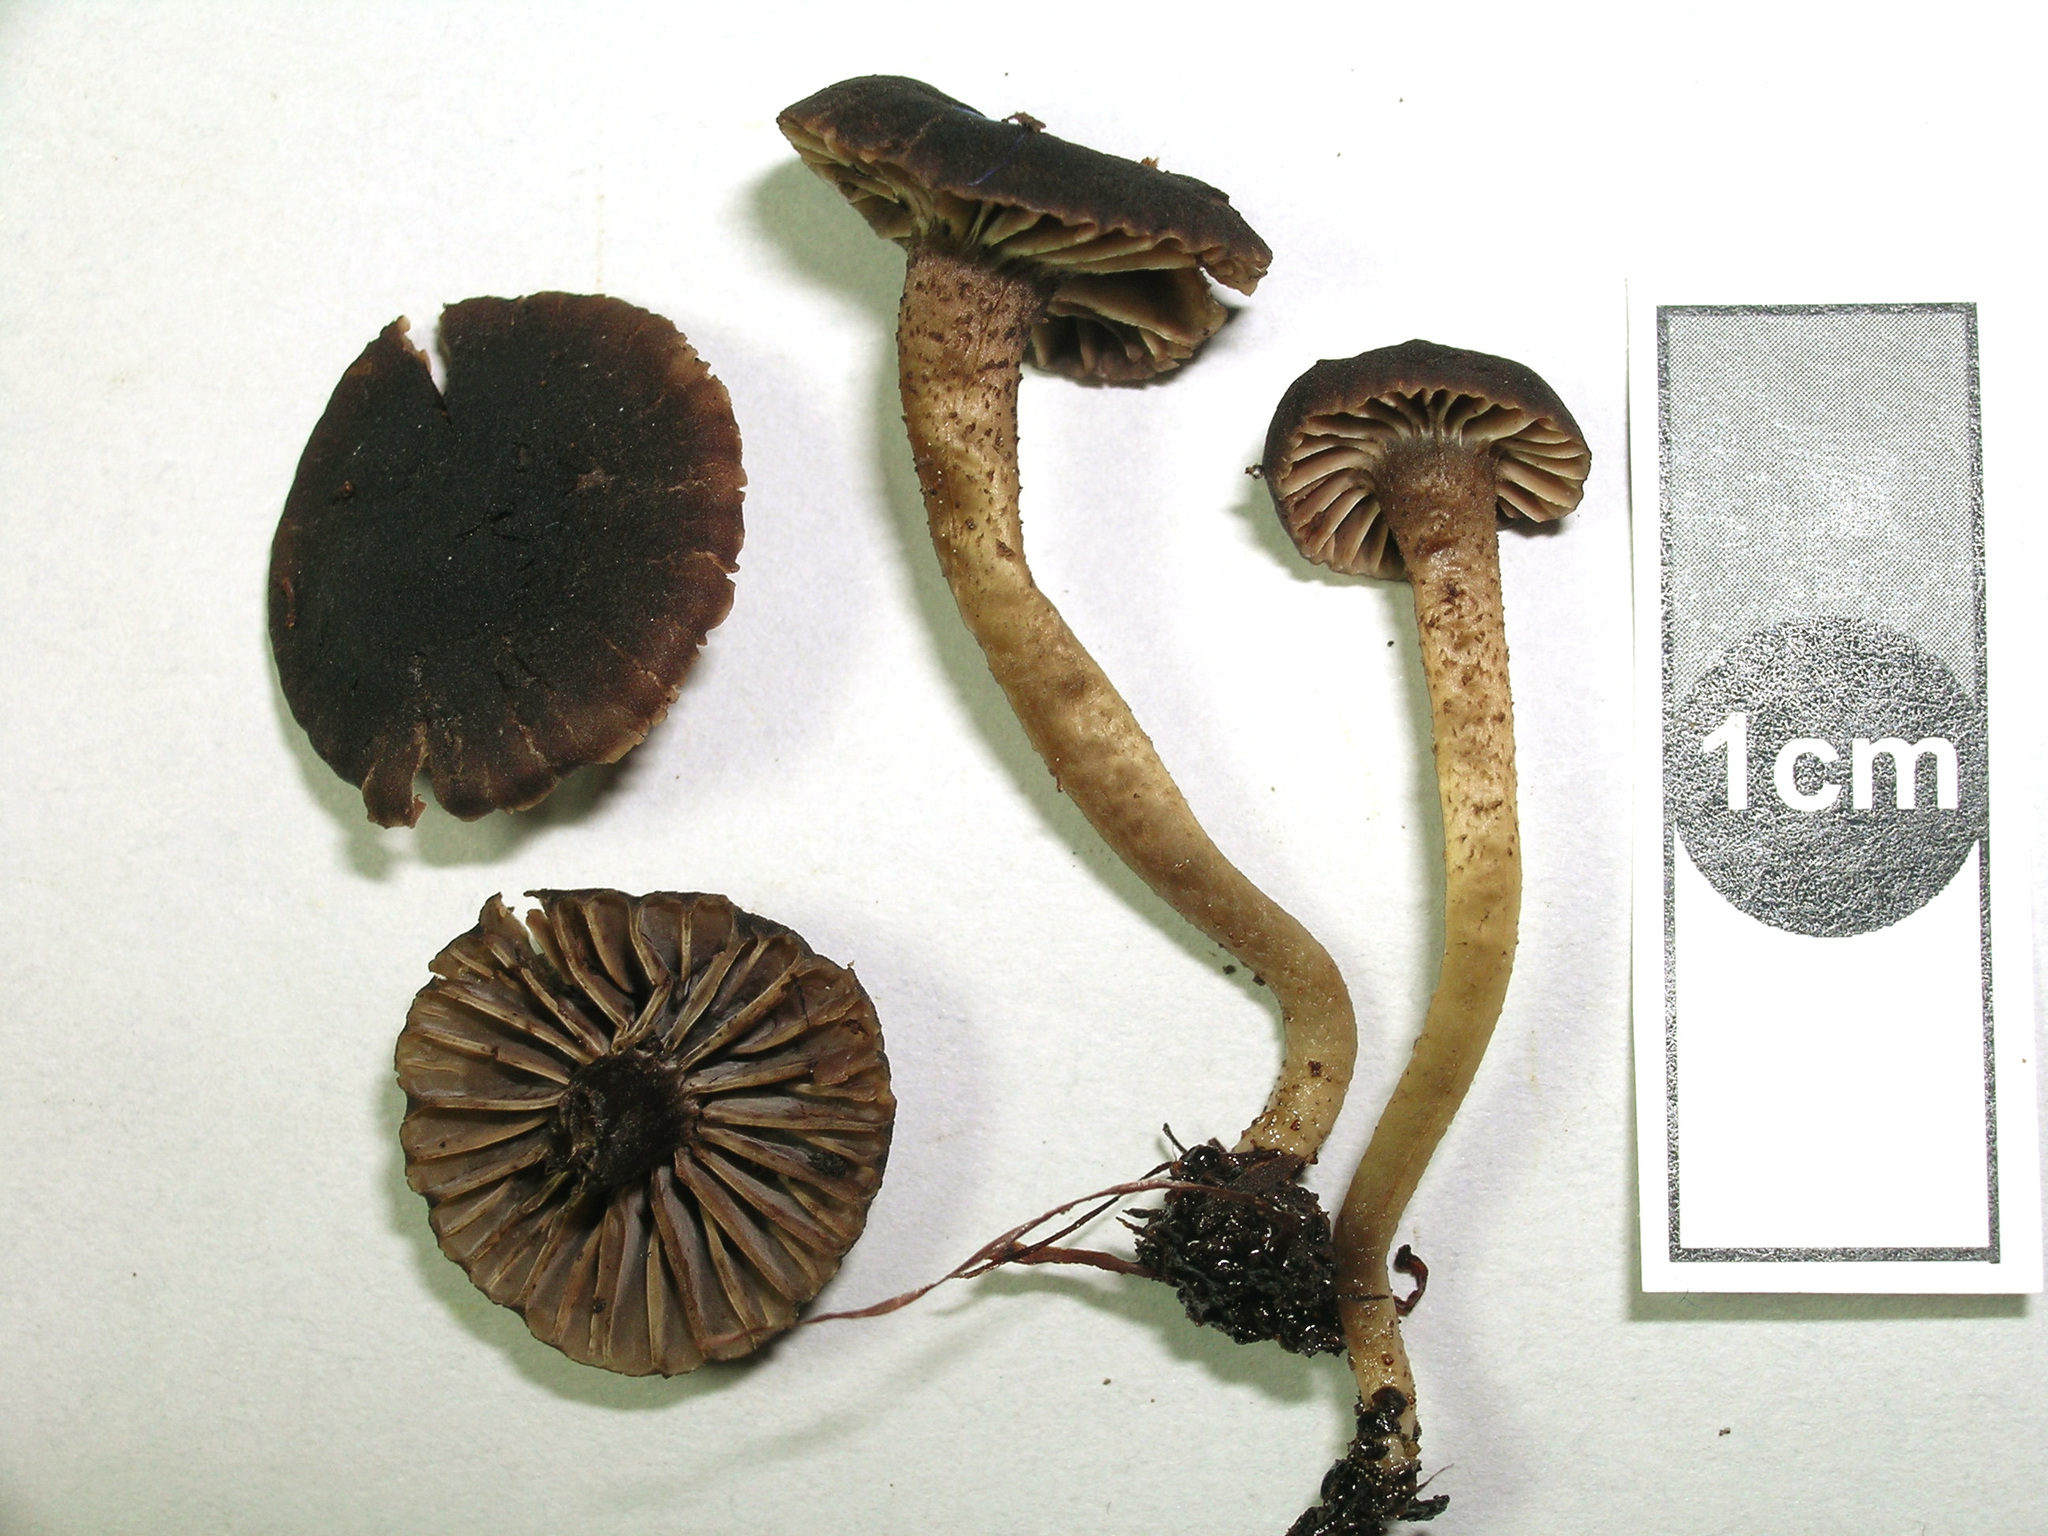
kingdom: Fungi
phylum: Basidiomycota
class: Agaricomycetes
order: Agaricales
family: Clavariaceae
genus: Hodophilus
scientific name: Hodophilus
